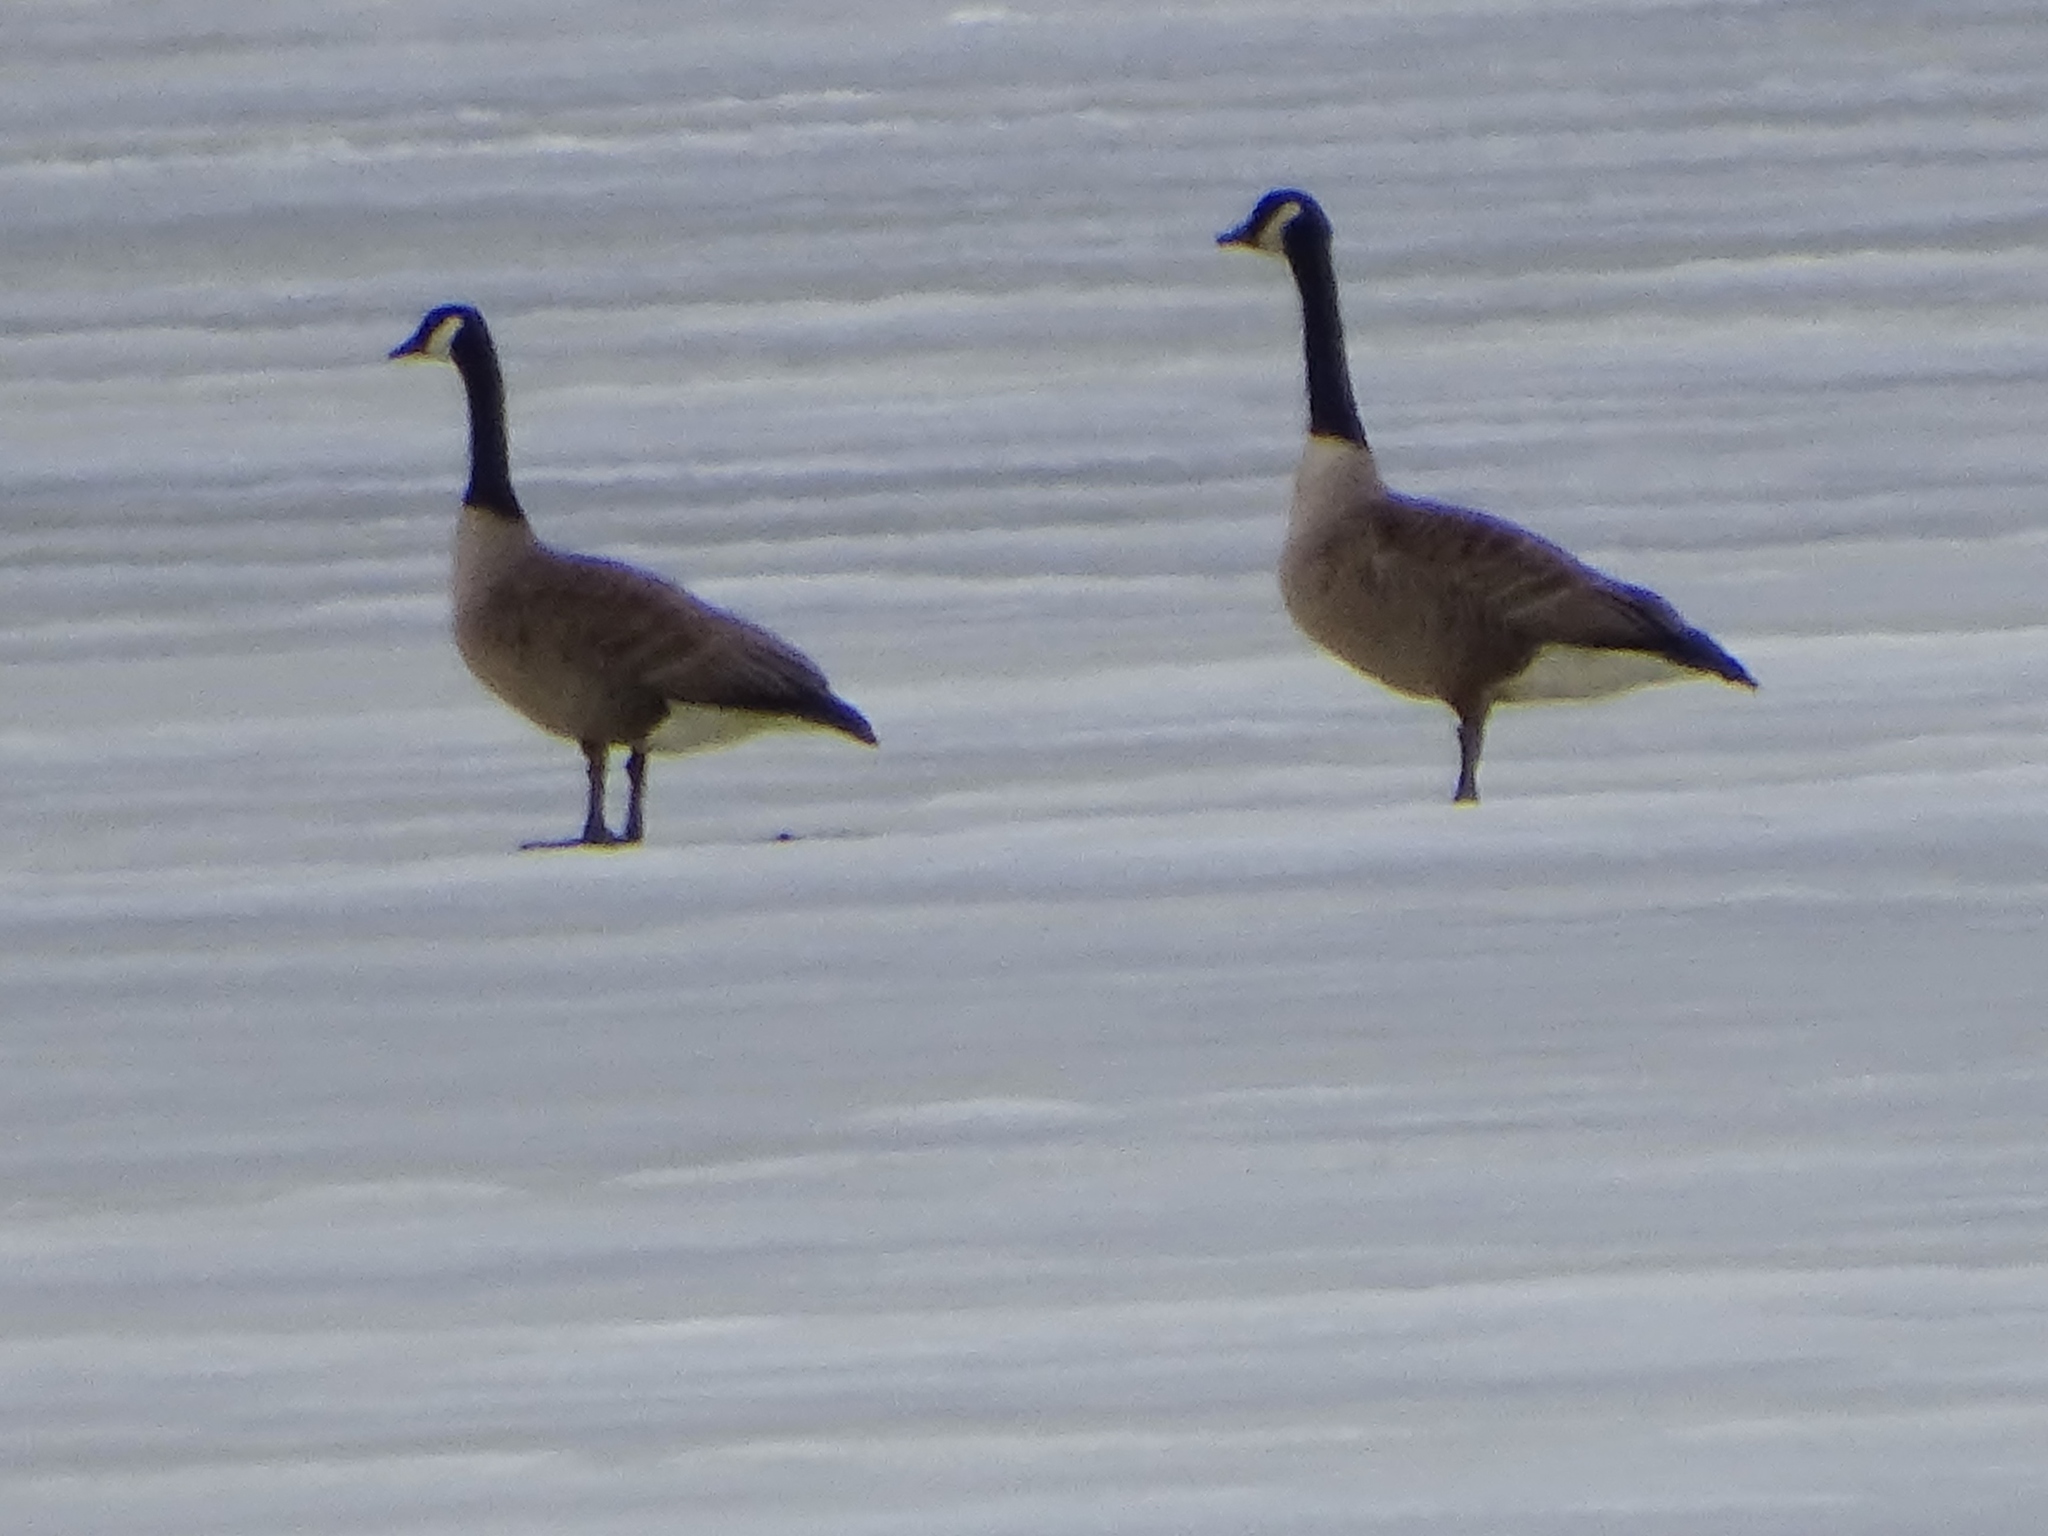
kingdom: Animalia
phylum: Chordata
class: Aves
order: Anseriformes
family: Anatidae
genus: Branta
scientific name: Branta canadensis
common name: Canada goose
